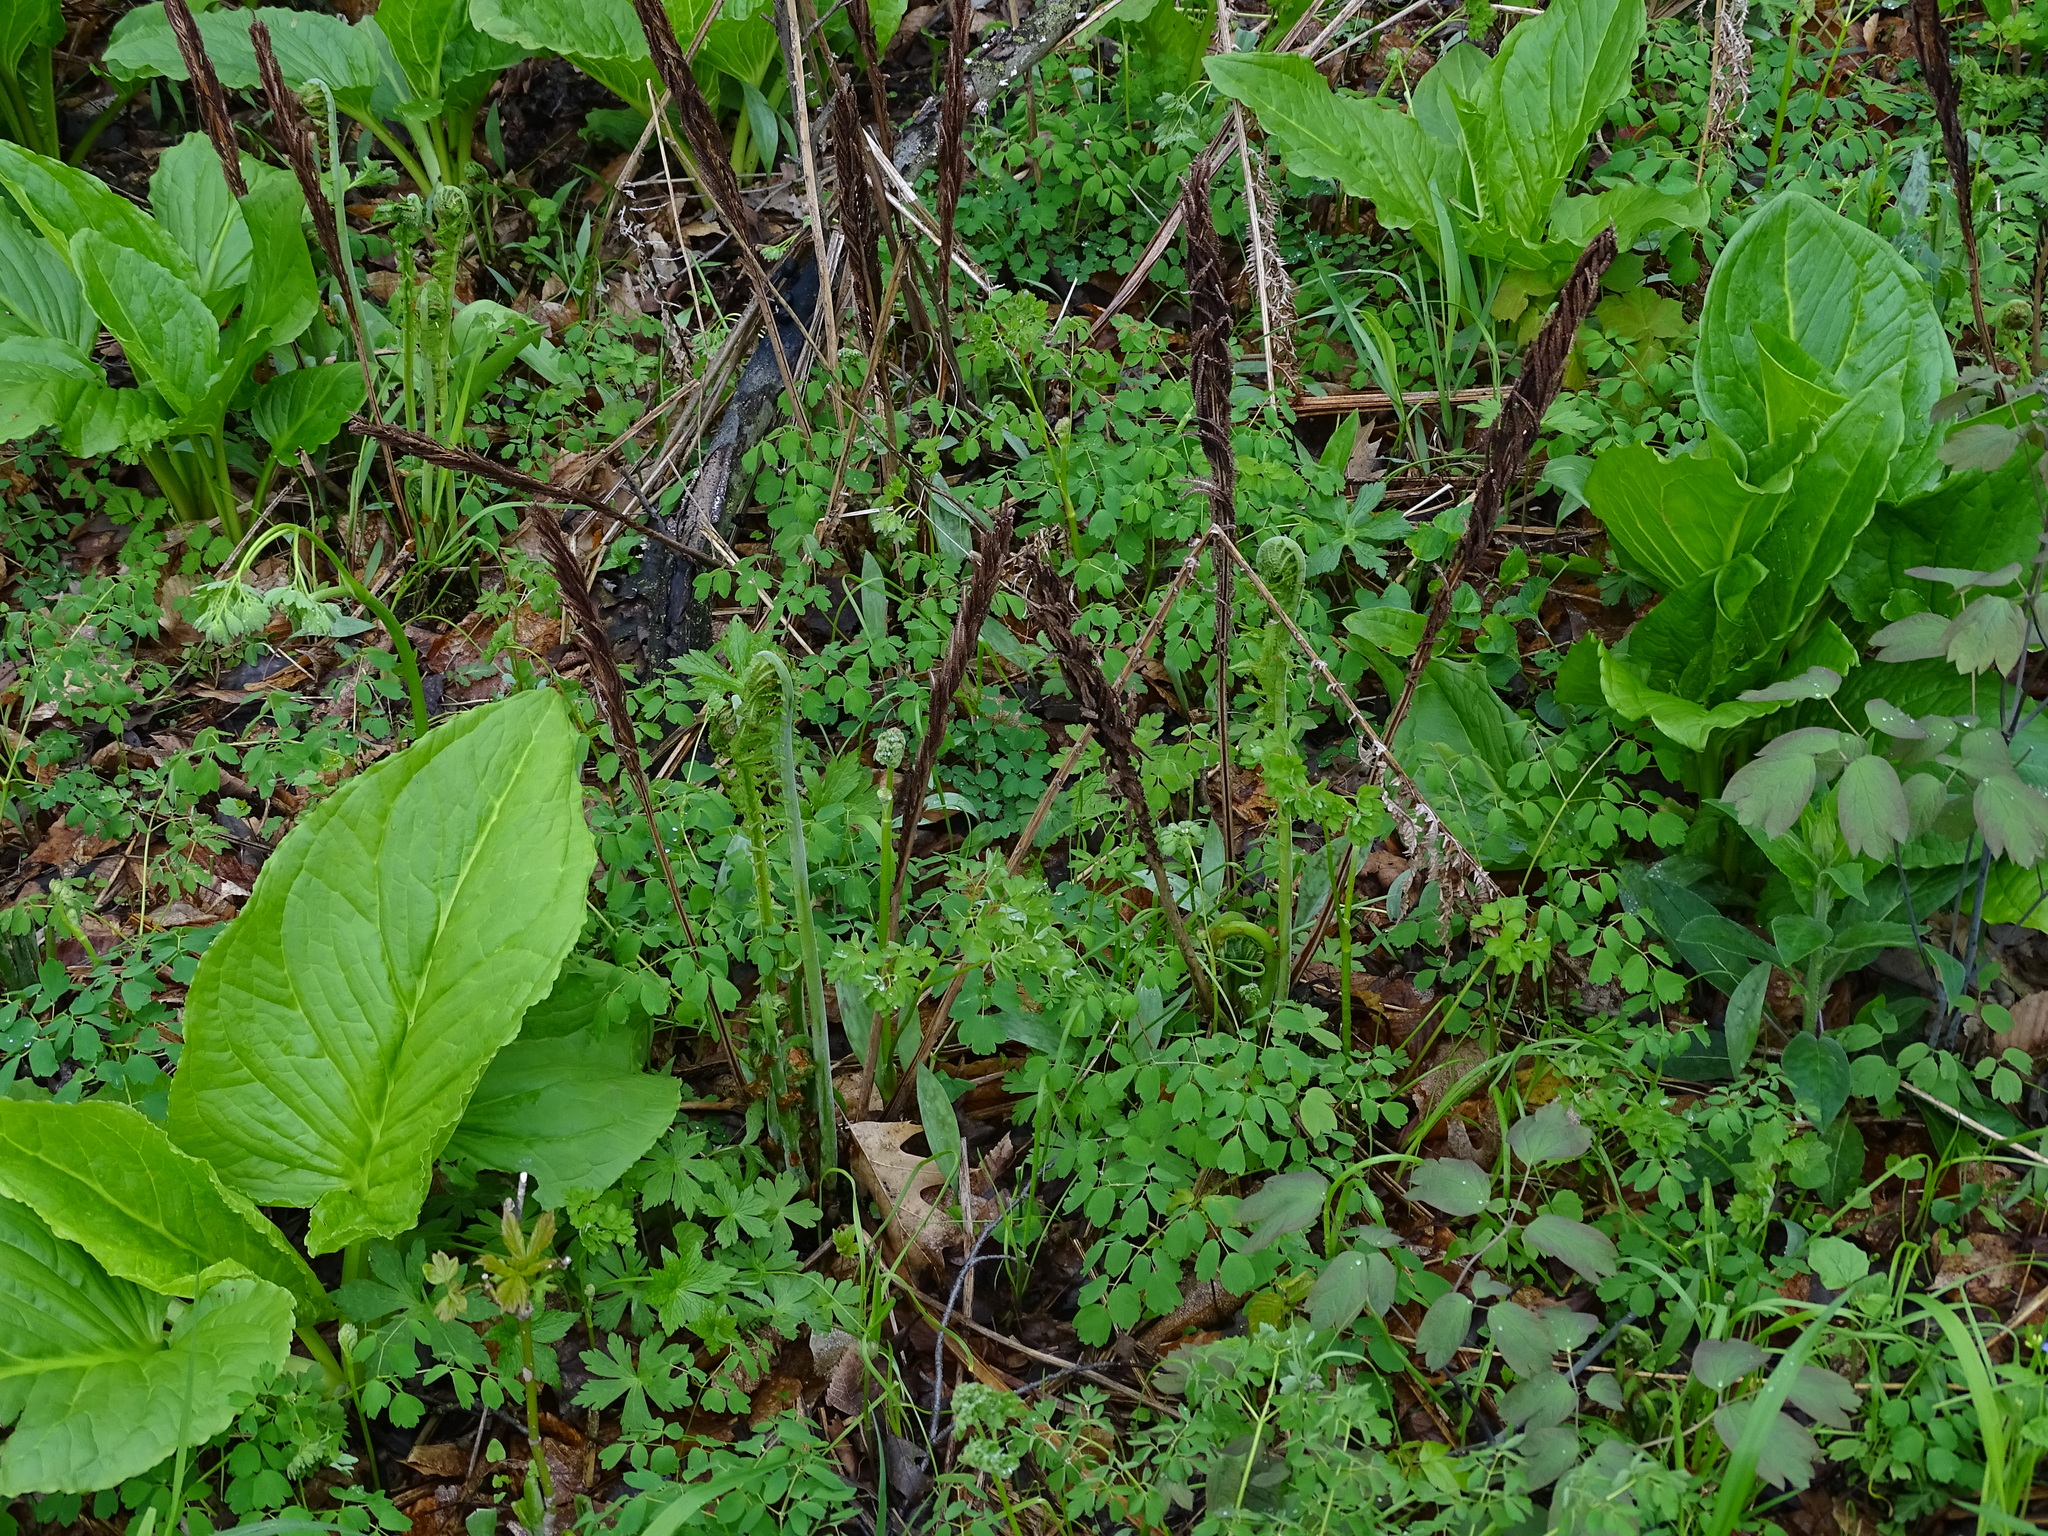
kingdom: Plantae
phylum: Tracheophyta
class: Polypodiopsida
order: Polypodiales
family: Onocleaceae
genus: Matteuccia
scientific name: Matteuccia struthiopteris
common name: Ostrich fern
